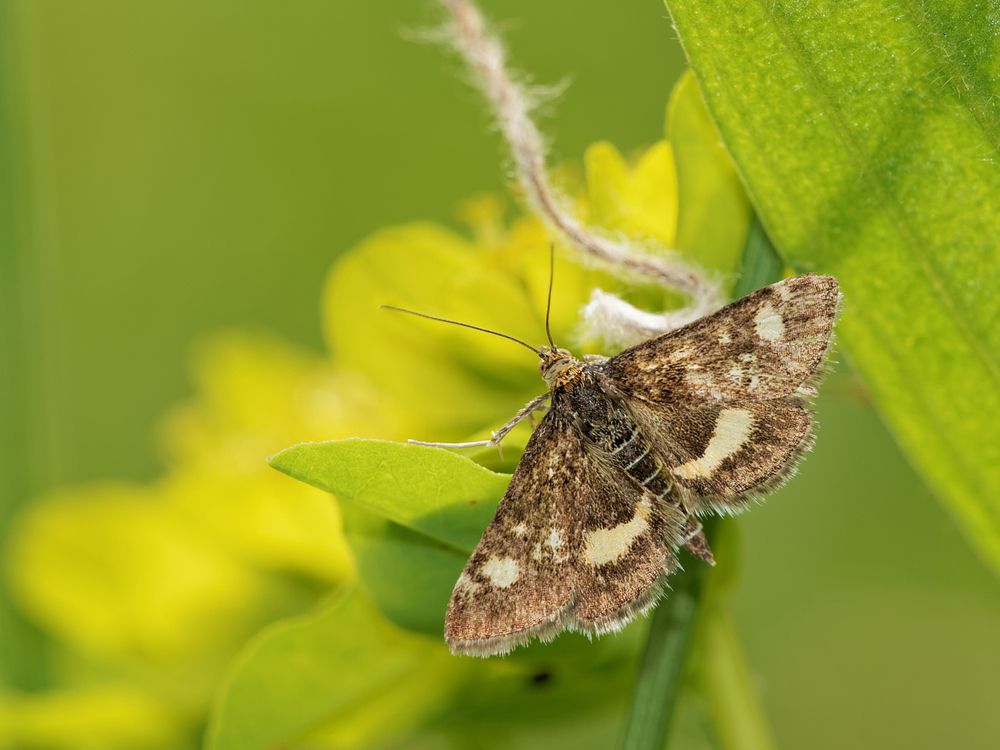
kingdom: Animalia
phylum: Arthropoda
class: Insecta
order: Lepidoptera
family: Crambidae
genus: Pyrausta
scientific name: Pyrausta aurata
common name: Small purple & gold
